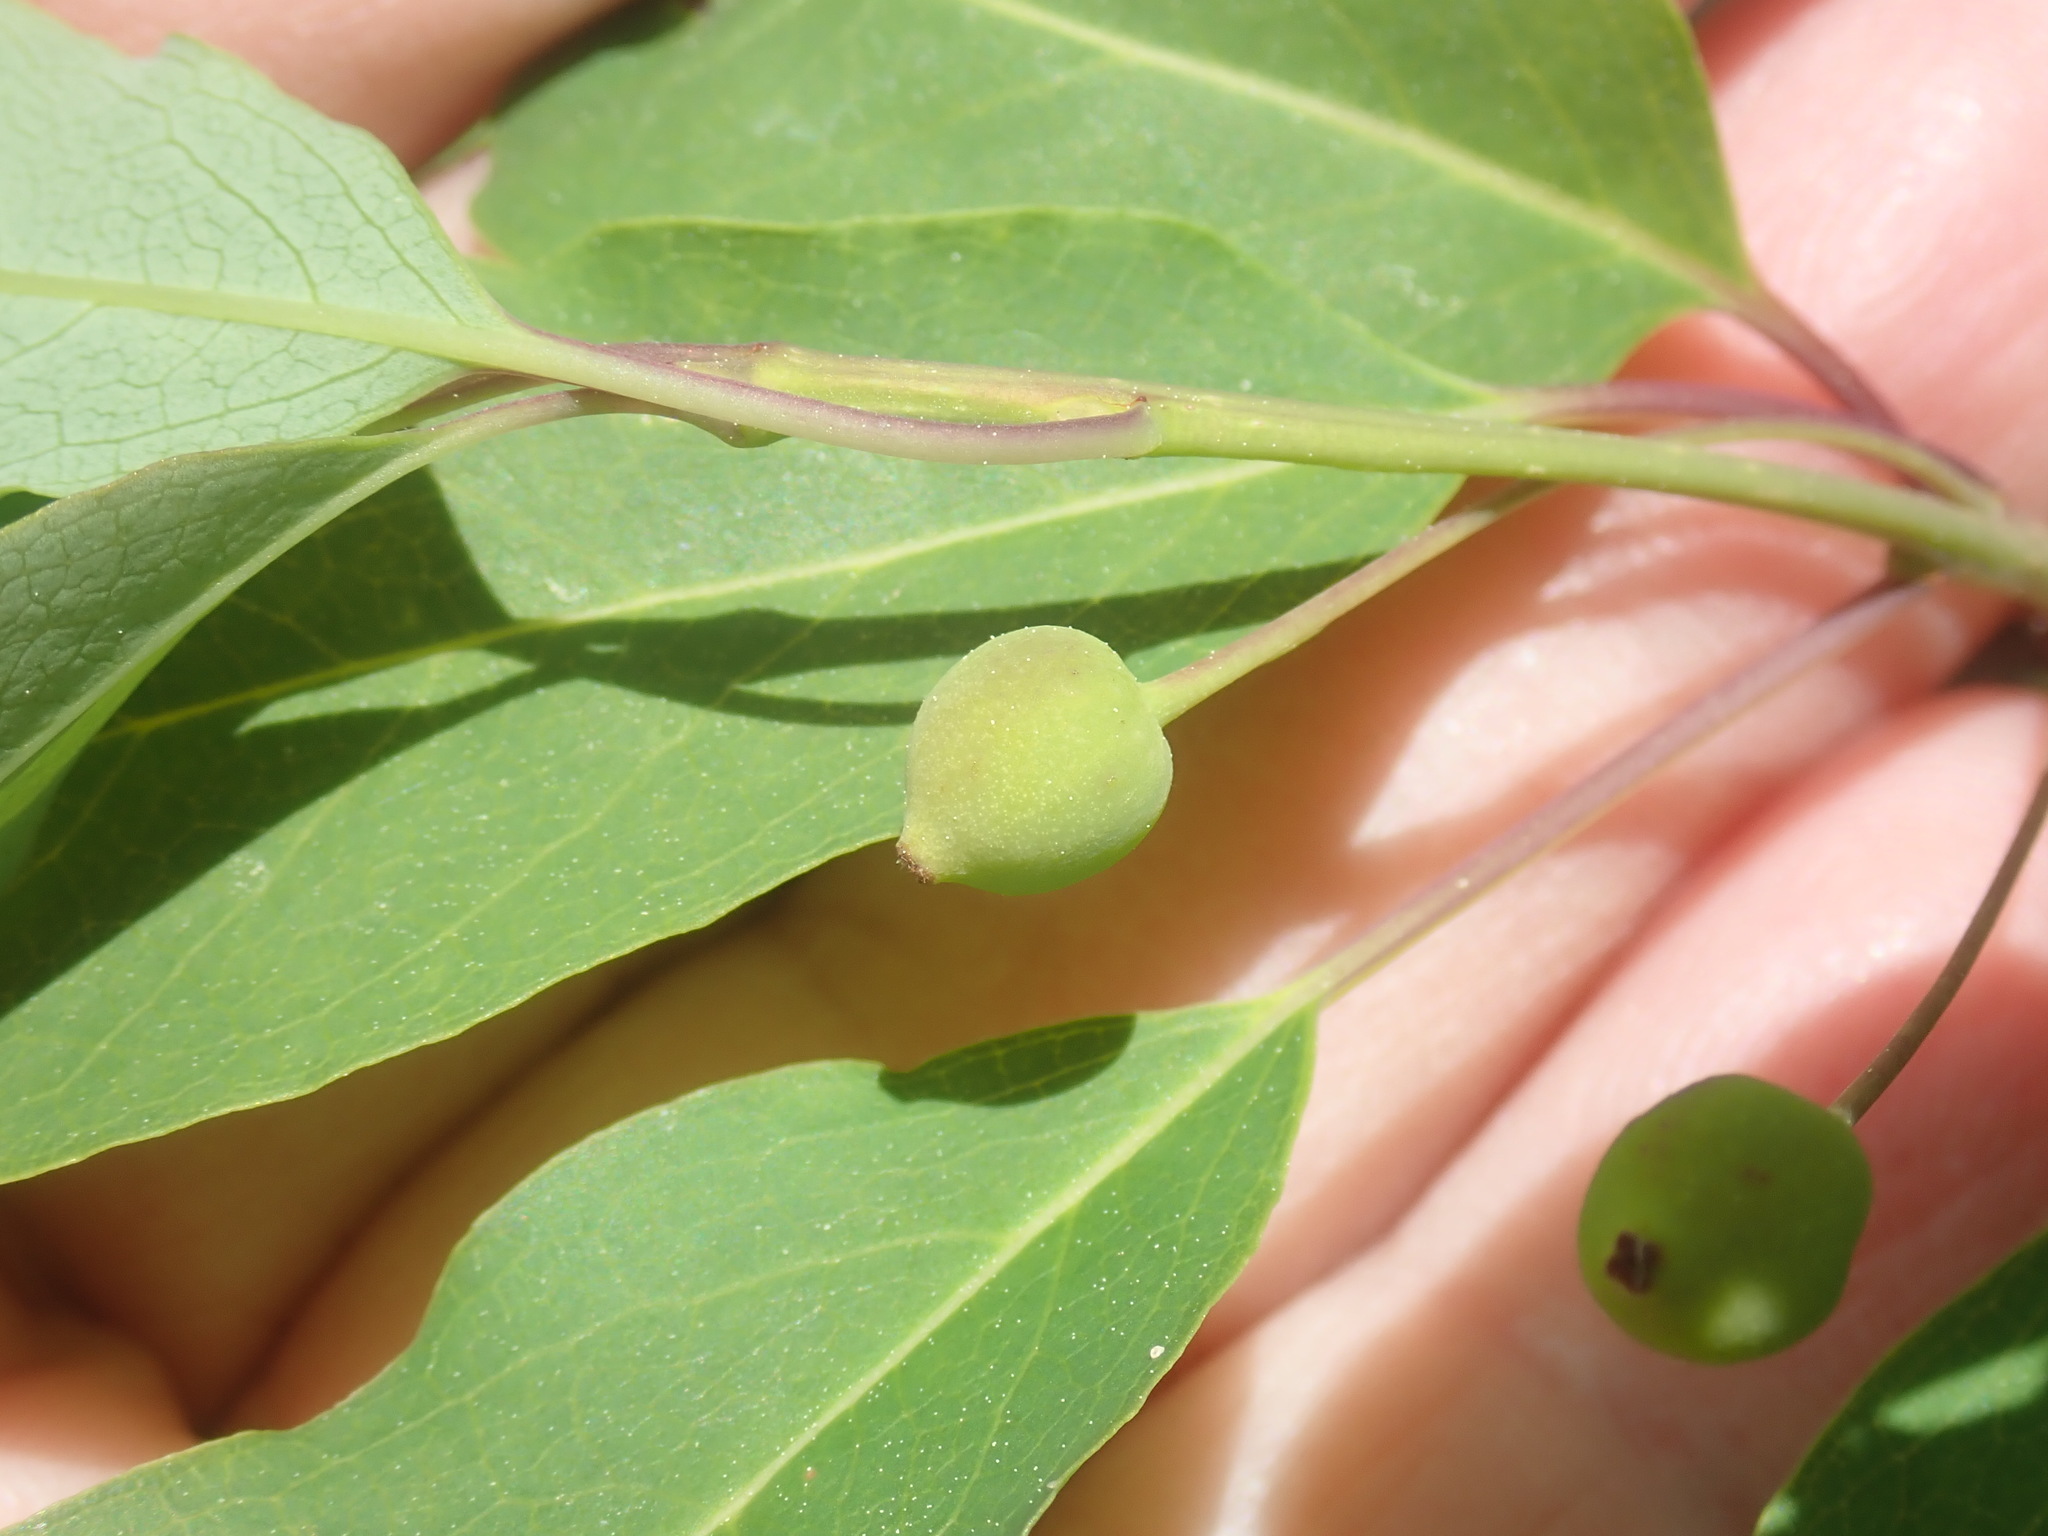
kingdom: Plantae
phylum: Tracheophyta
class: Magnoliopsida
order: Aquifoliales
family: Aquifoliaceae
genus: Ilex
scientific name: Ilex mucronata
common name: Catberry
